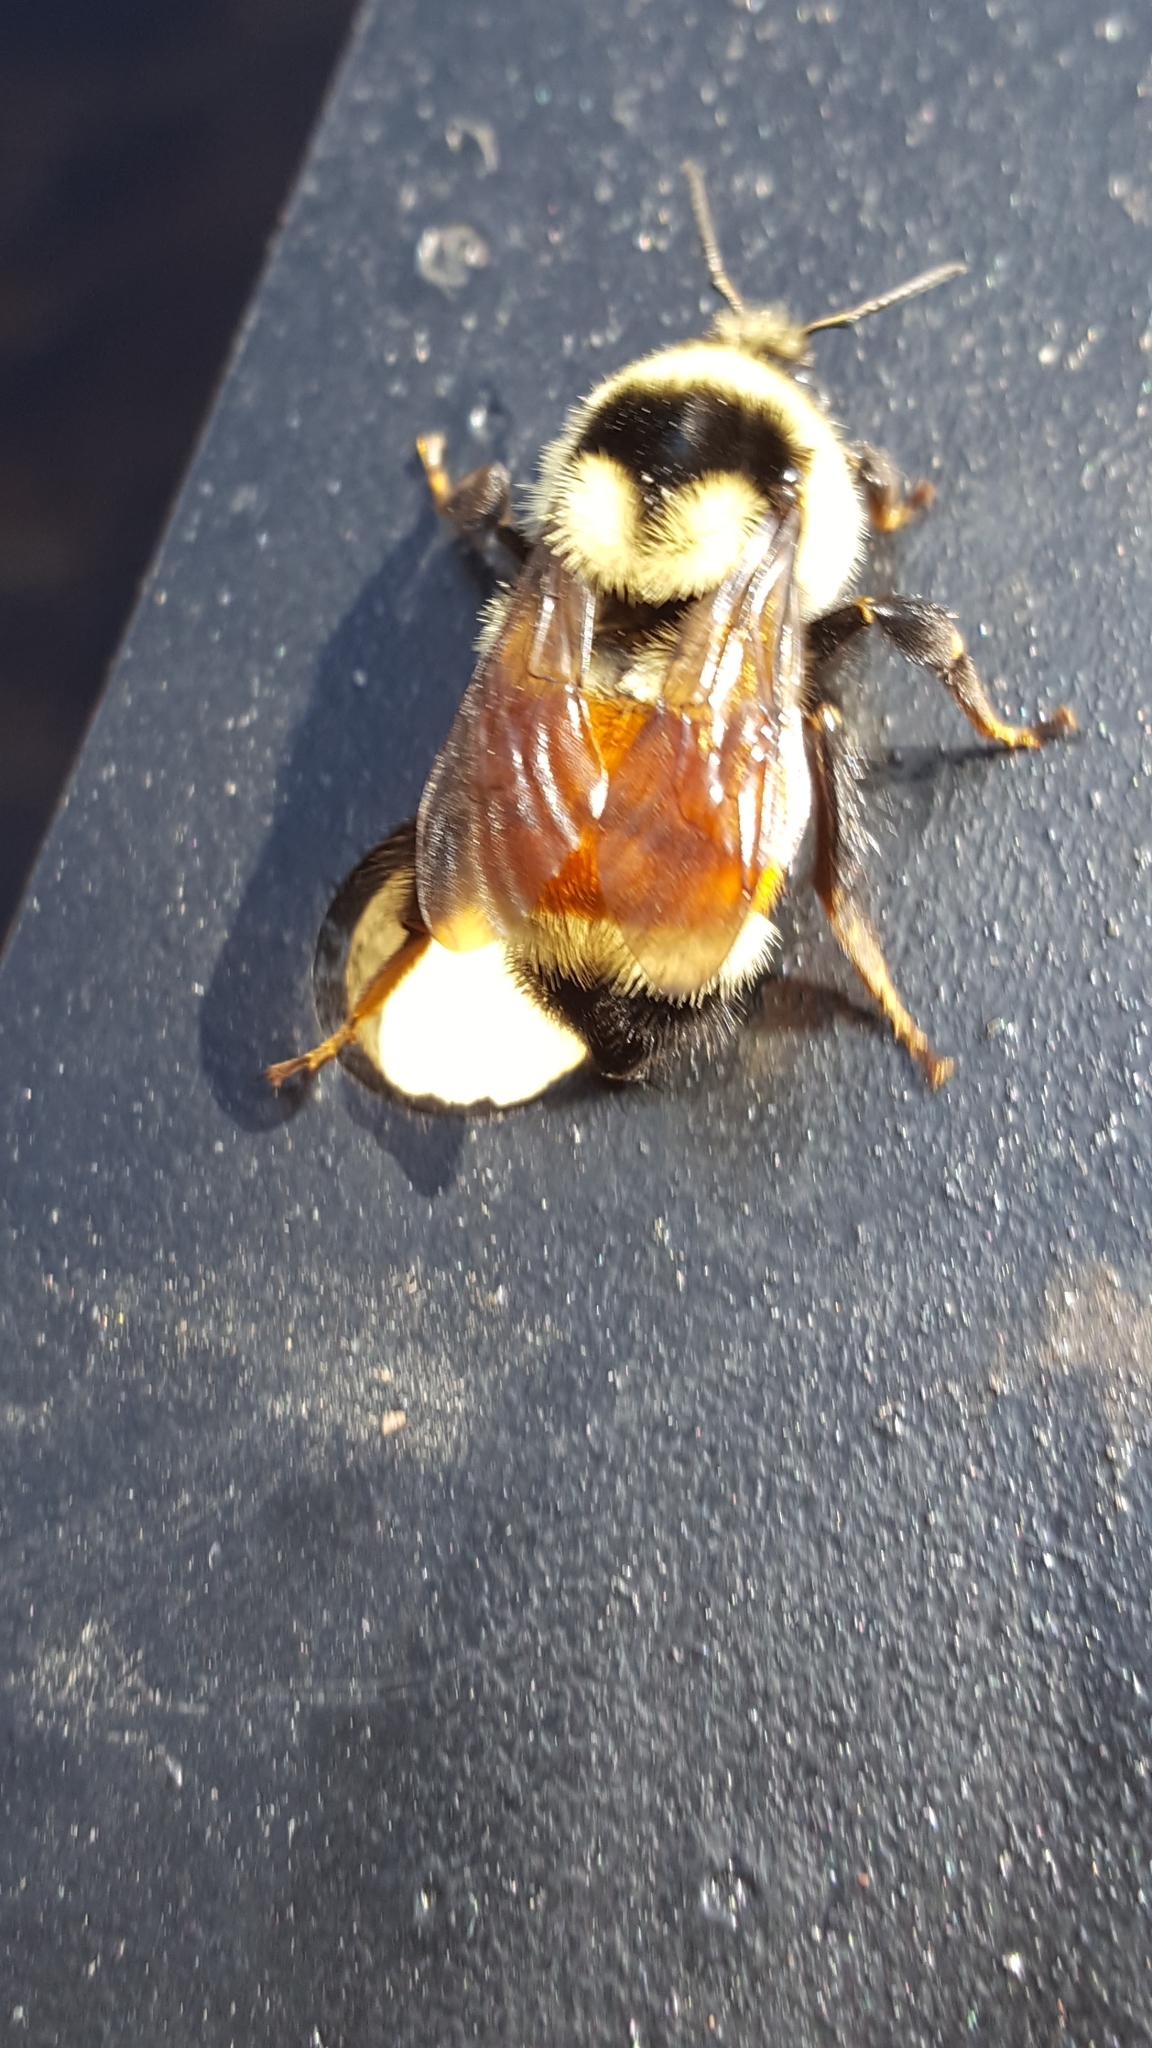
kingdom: Animalia
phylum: Arthropoda
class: Insecta
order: Hymenoptera
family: Apidae
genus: Bombus
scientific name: Bombus ternarius
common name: Tri-colored bumble bee
